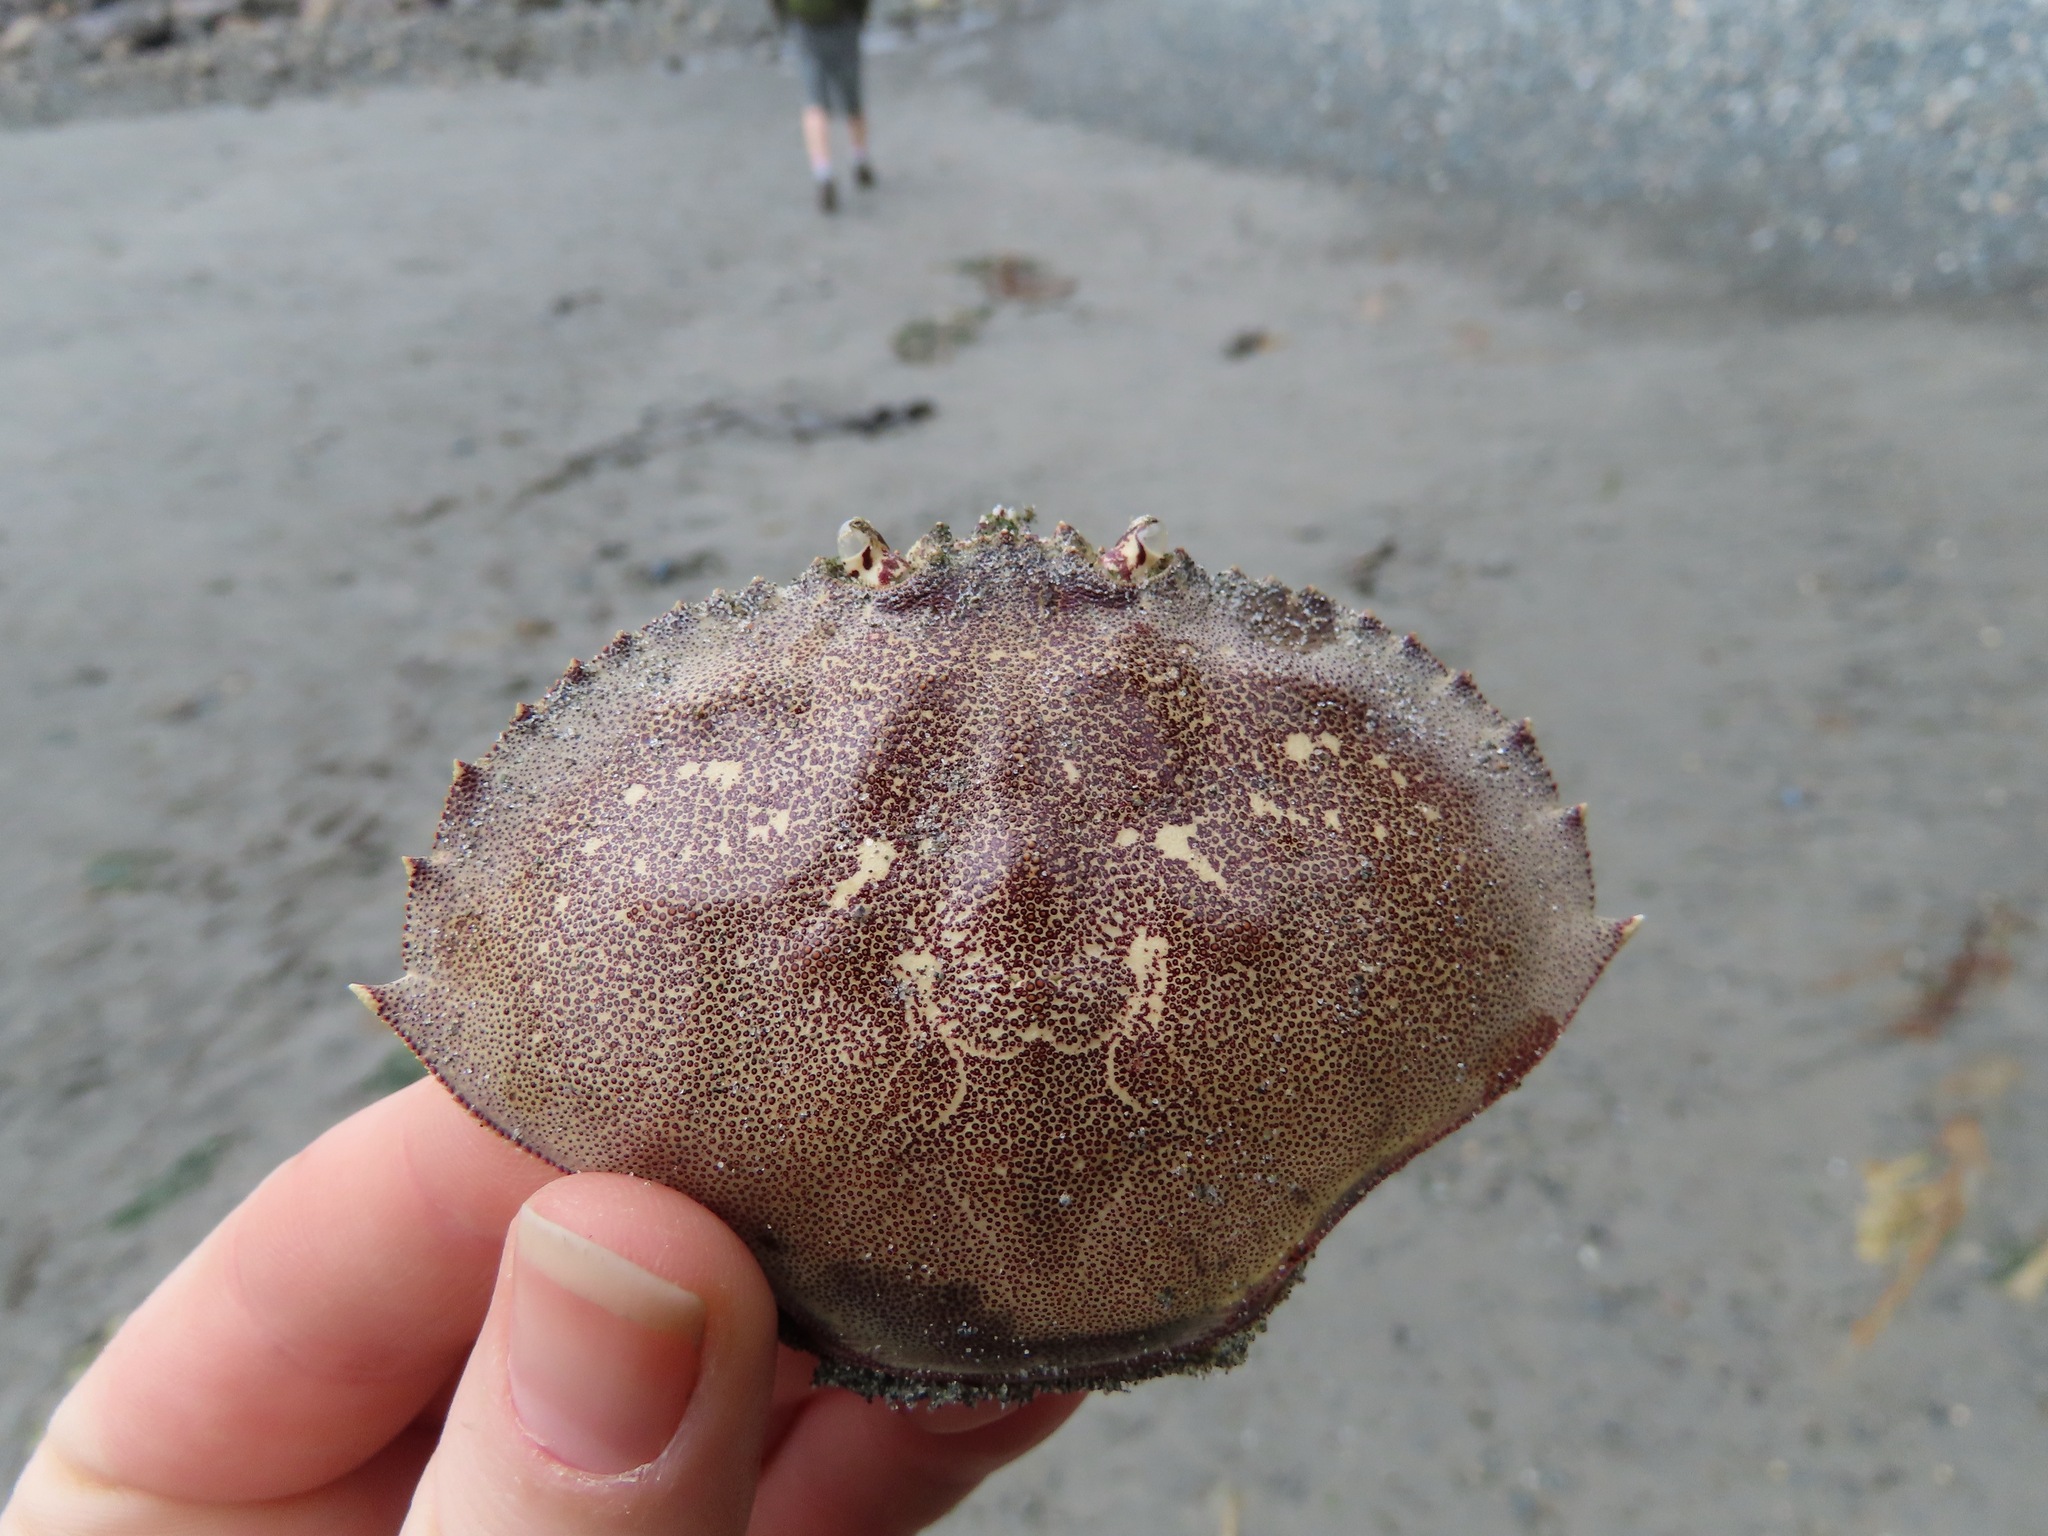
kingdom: Animalia
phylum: Arthropoda
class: Malacostraca
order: Decapoda
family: Cancridae
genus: Metacarcinus
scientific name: Metacarcinus magister
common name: Californian crab
